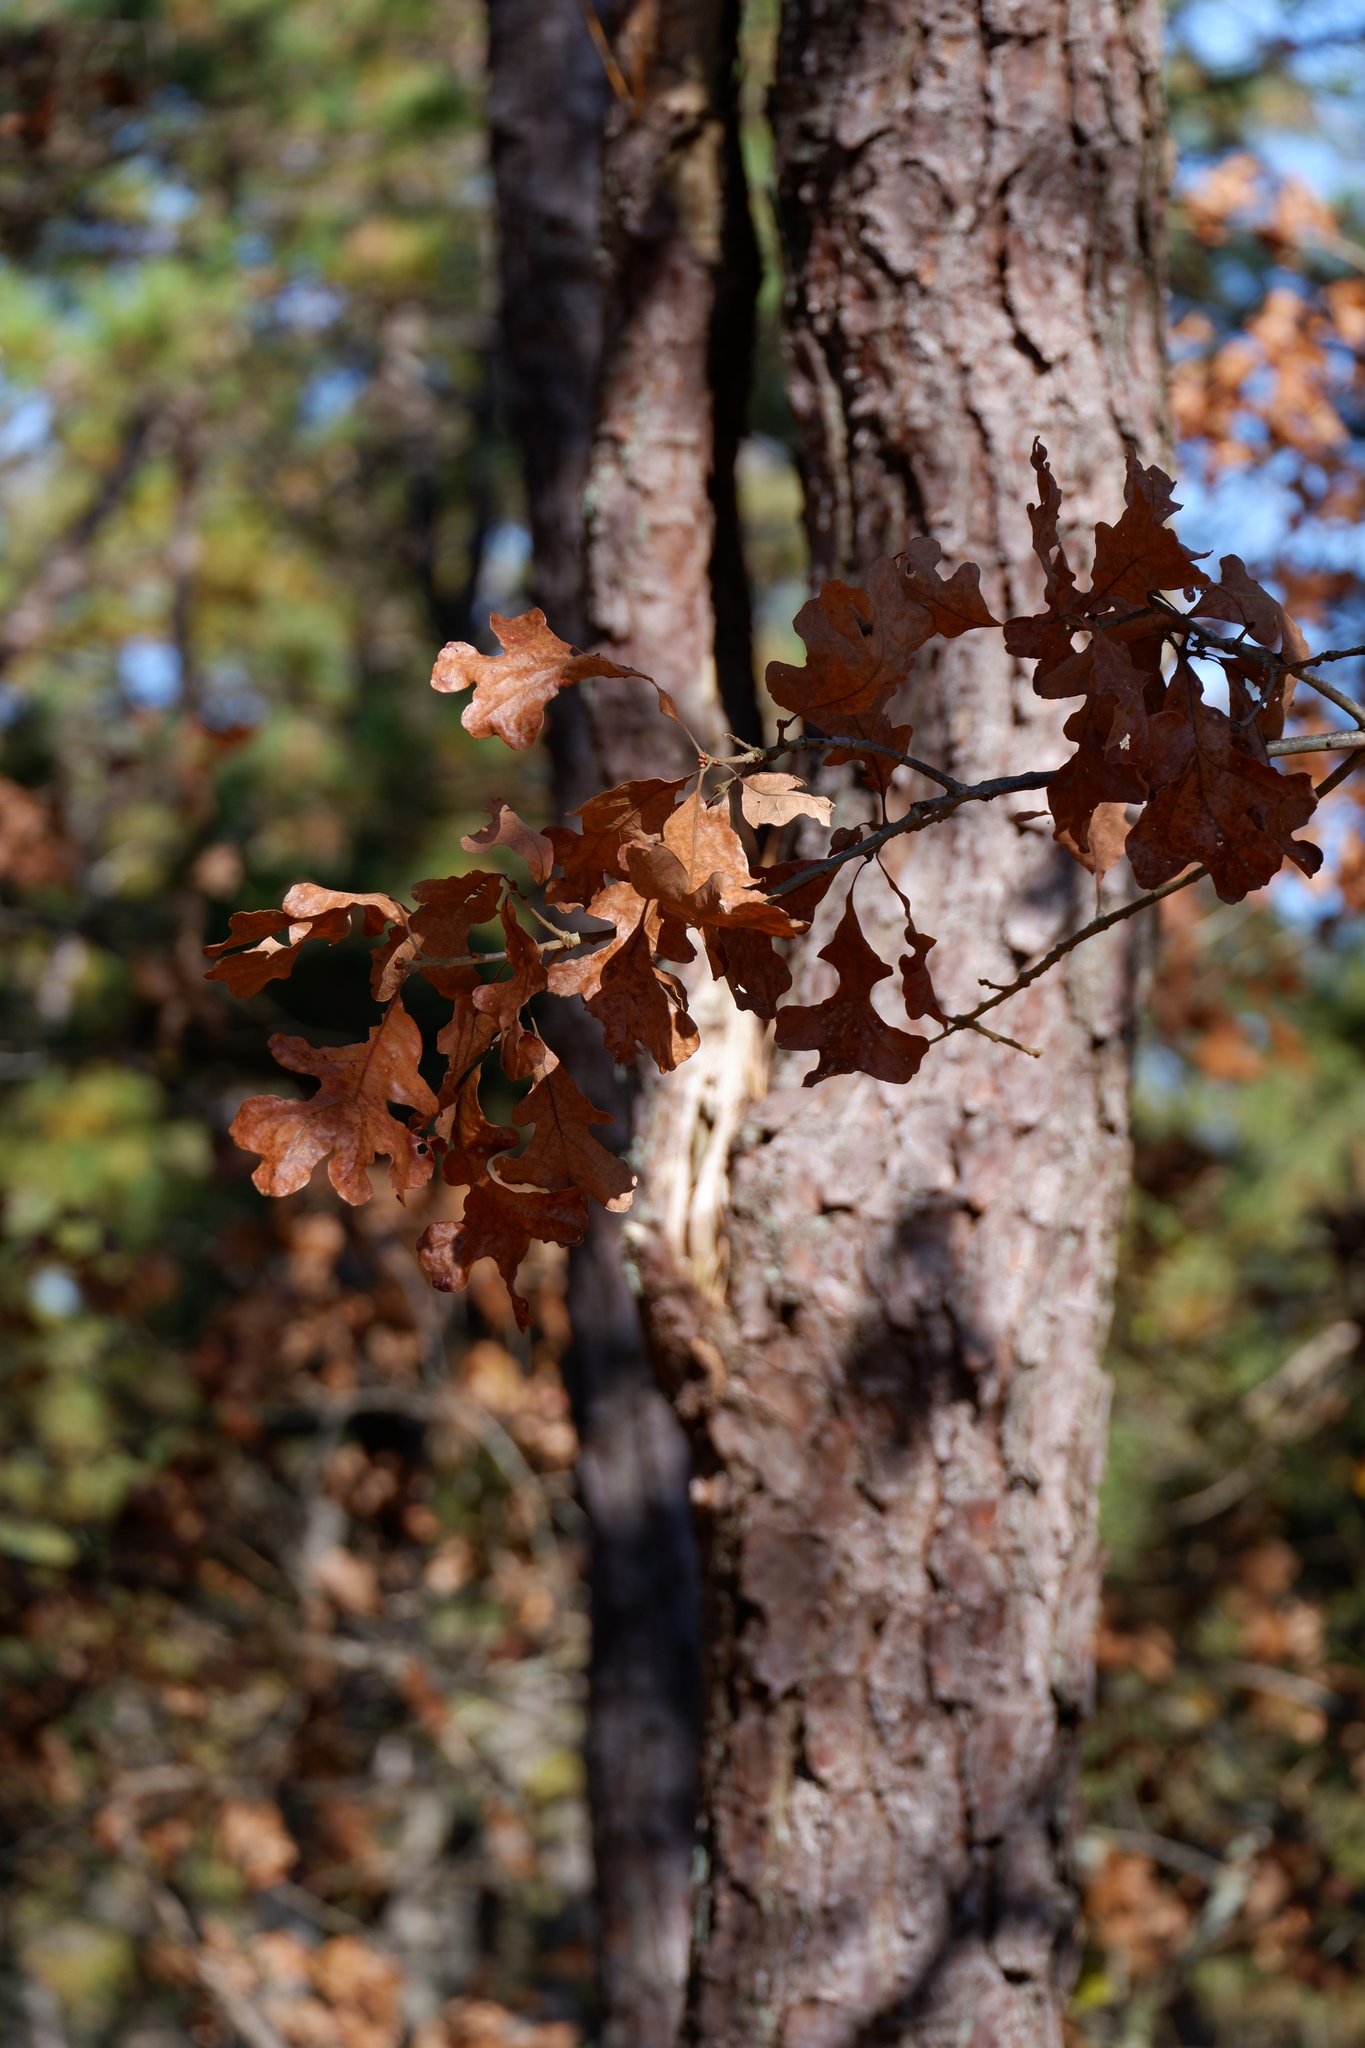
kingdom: Plantae
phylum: Tracheophyta
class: Magnoliopsida
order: Fagales
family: Fagaceae
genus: Quercus
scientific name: Quercus stellata
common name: Post oak
